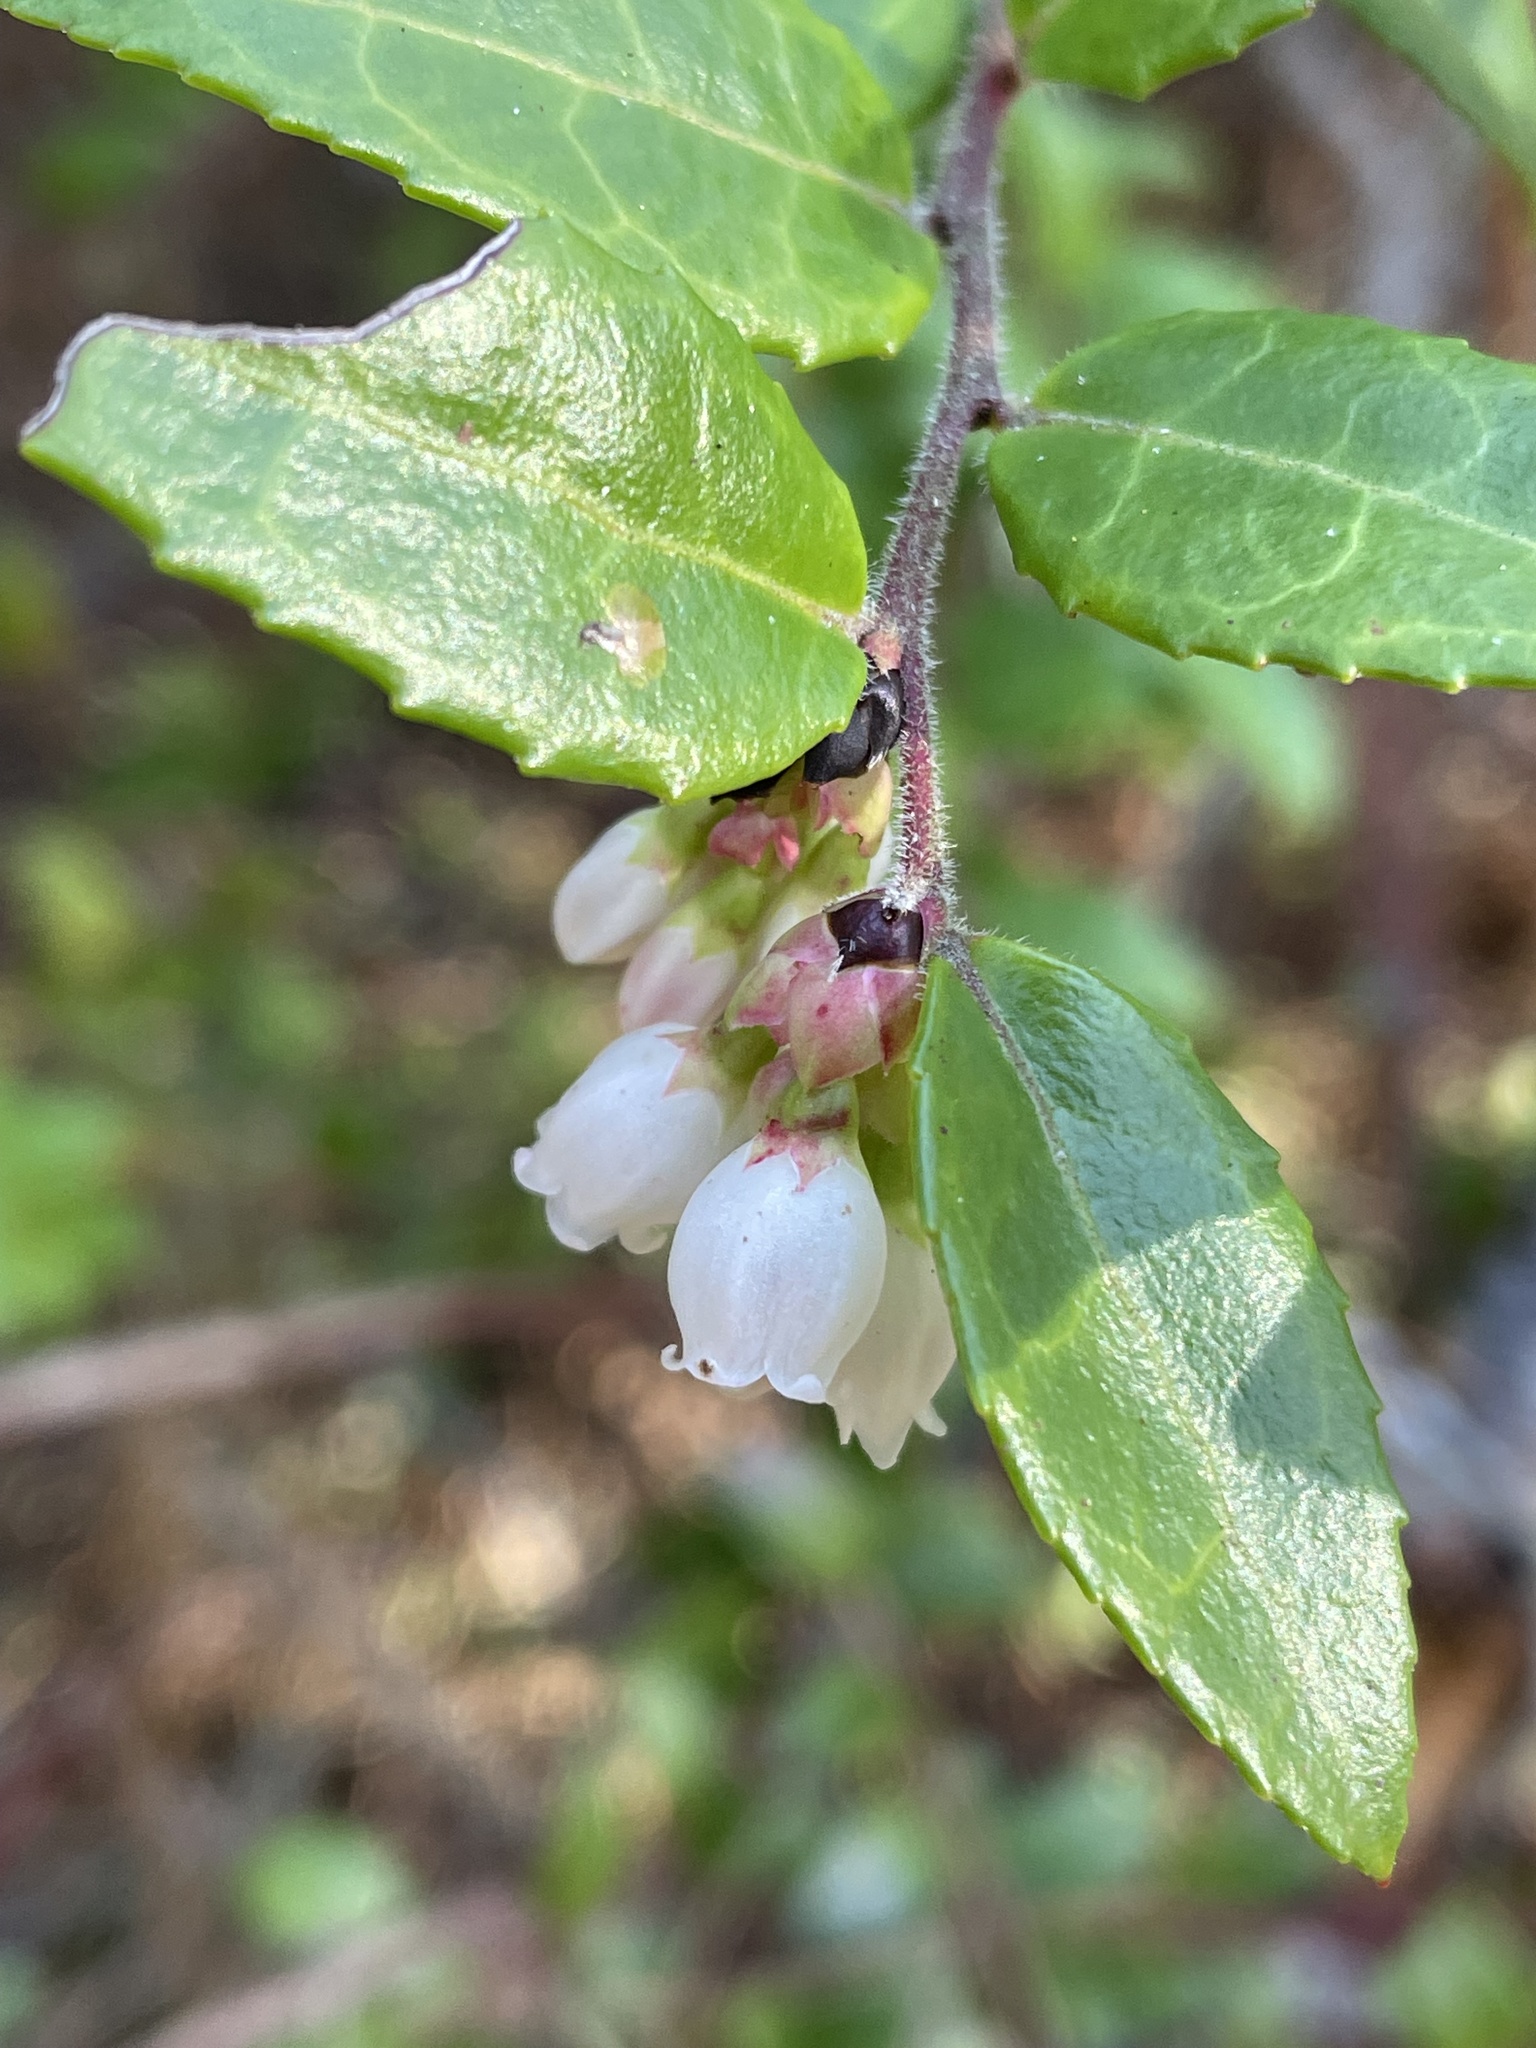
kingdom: Plantae
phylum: Tracheophyta
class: Magnoliopsida
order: Ericales
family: Ericaceae
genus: Vaccinium
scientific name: Vaccinium ovatum
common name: California-huckleberry
